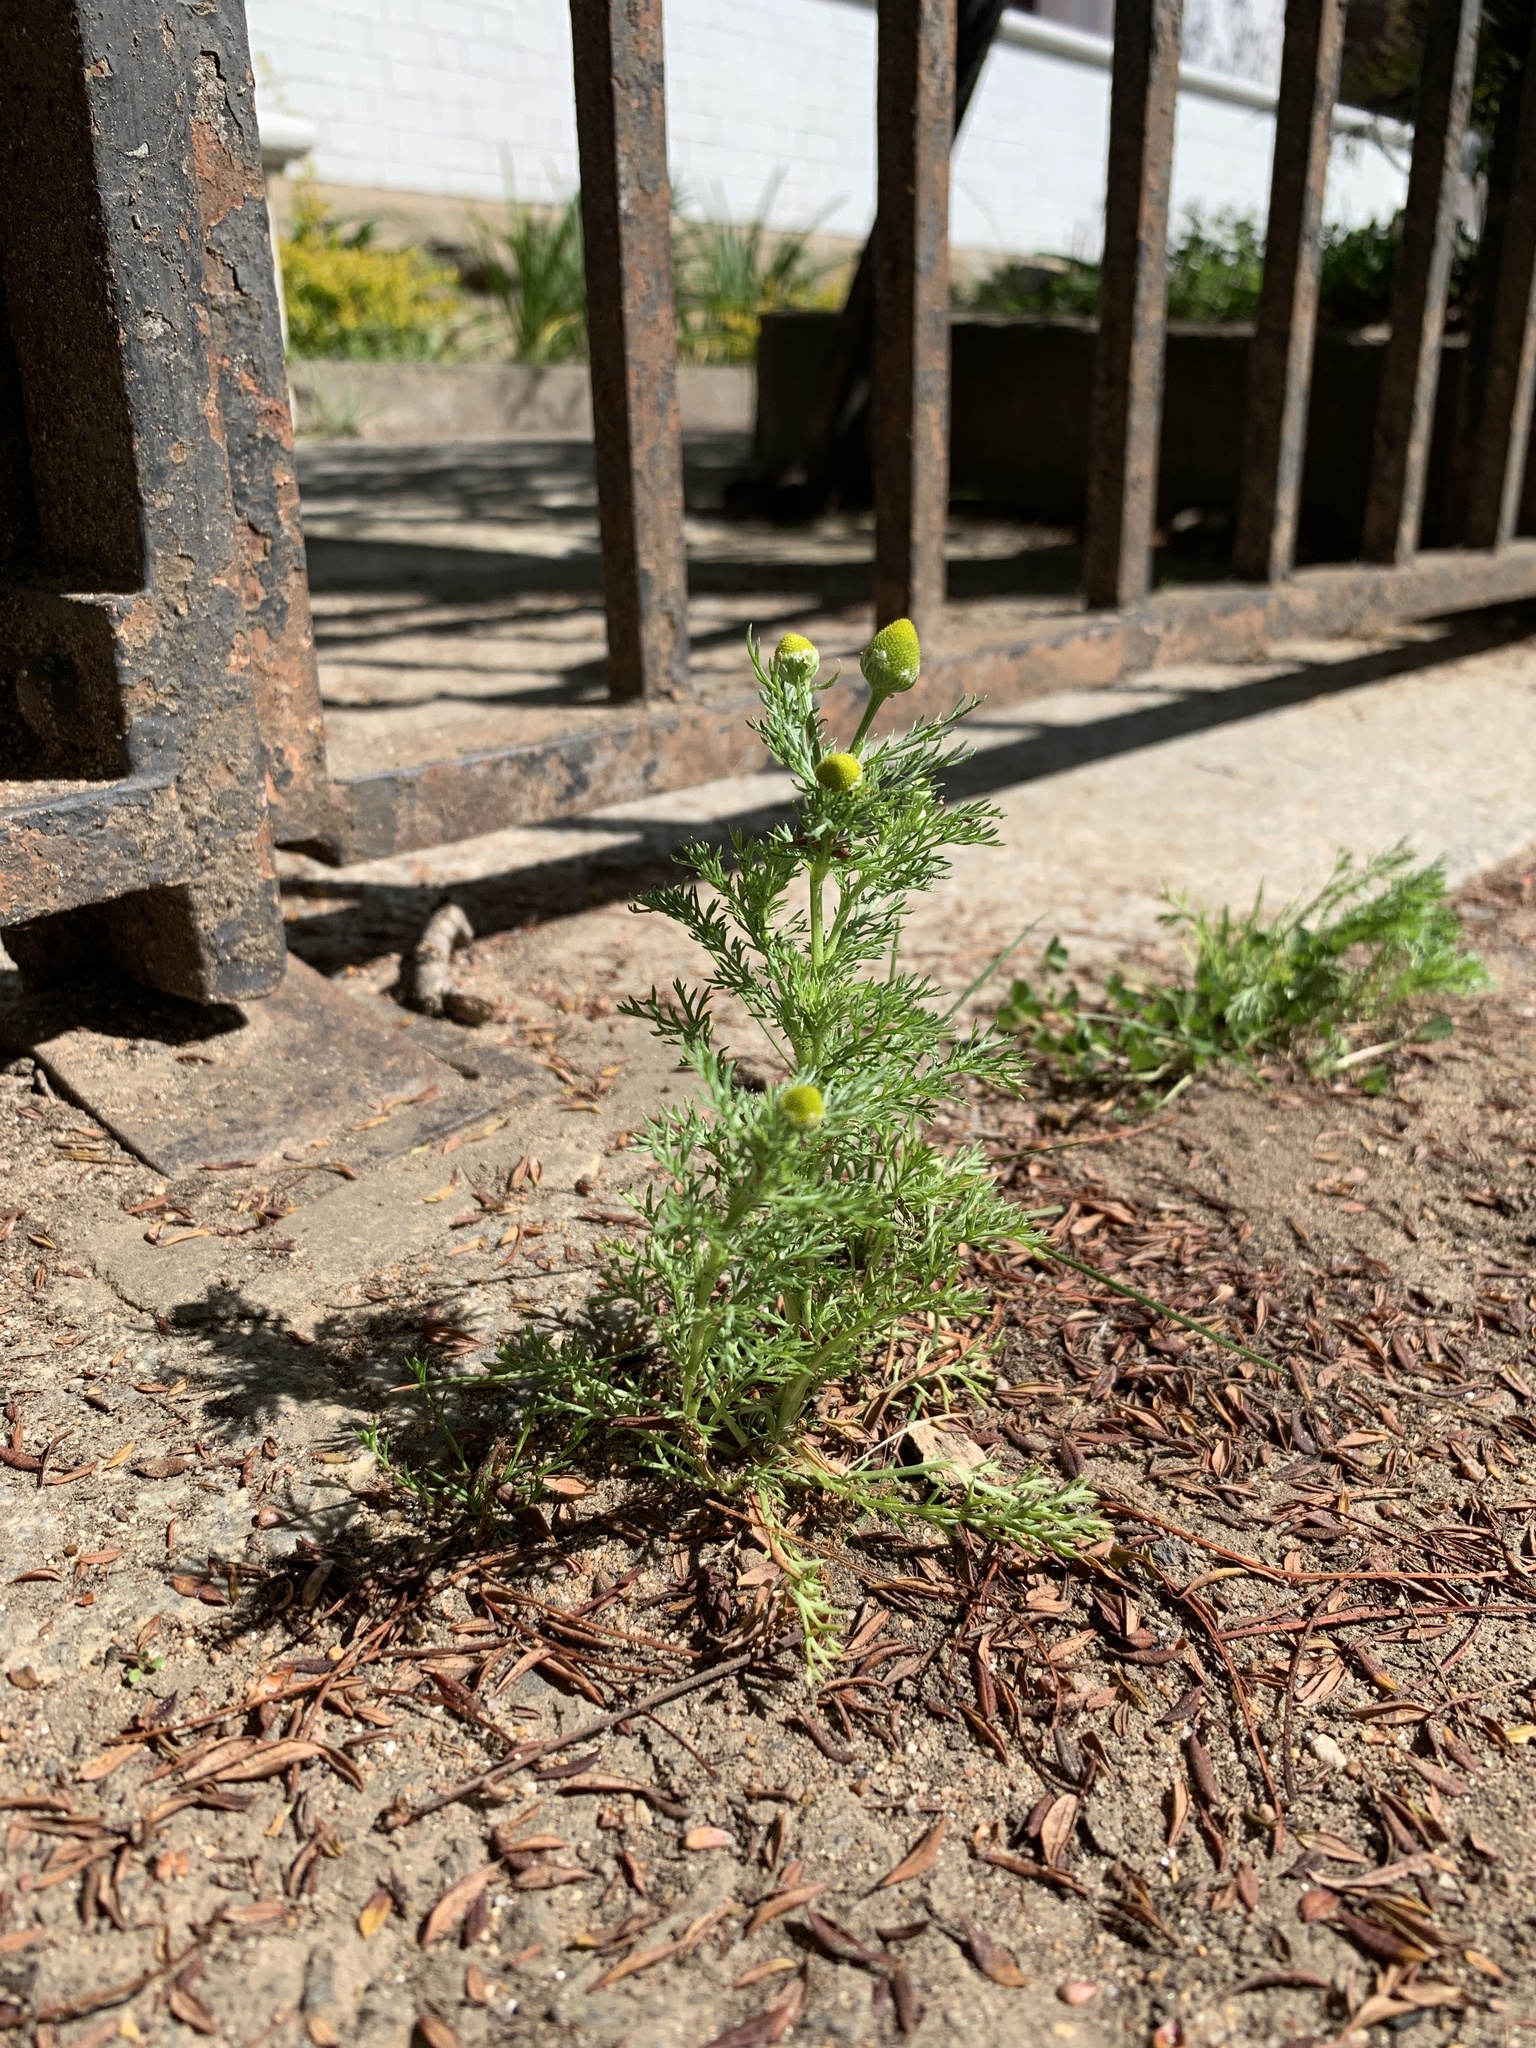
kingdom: Plantae
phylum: Tracheophyta
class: Magnoliopsida
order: Asterales
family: Asteraceae
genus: Matricaria
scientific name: Matricaria discoidea
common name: Disc mayweed
